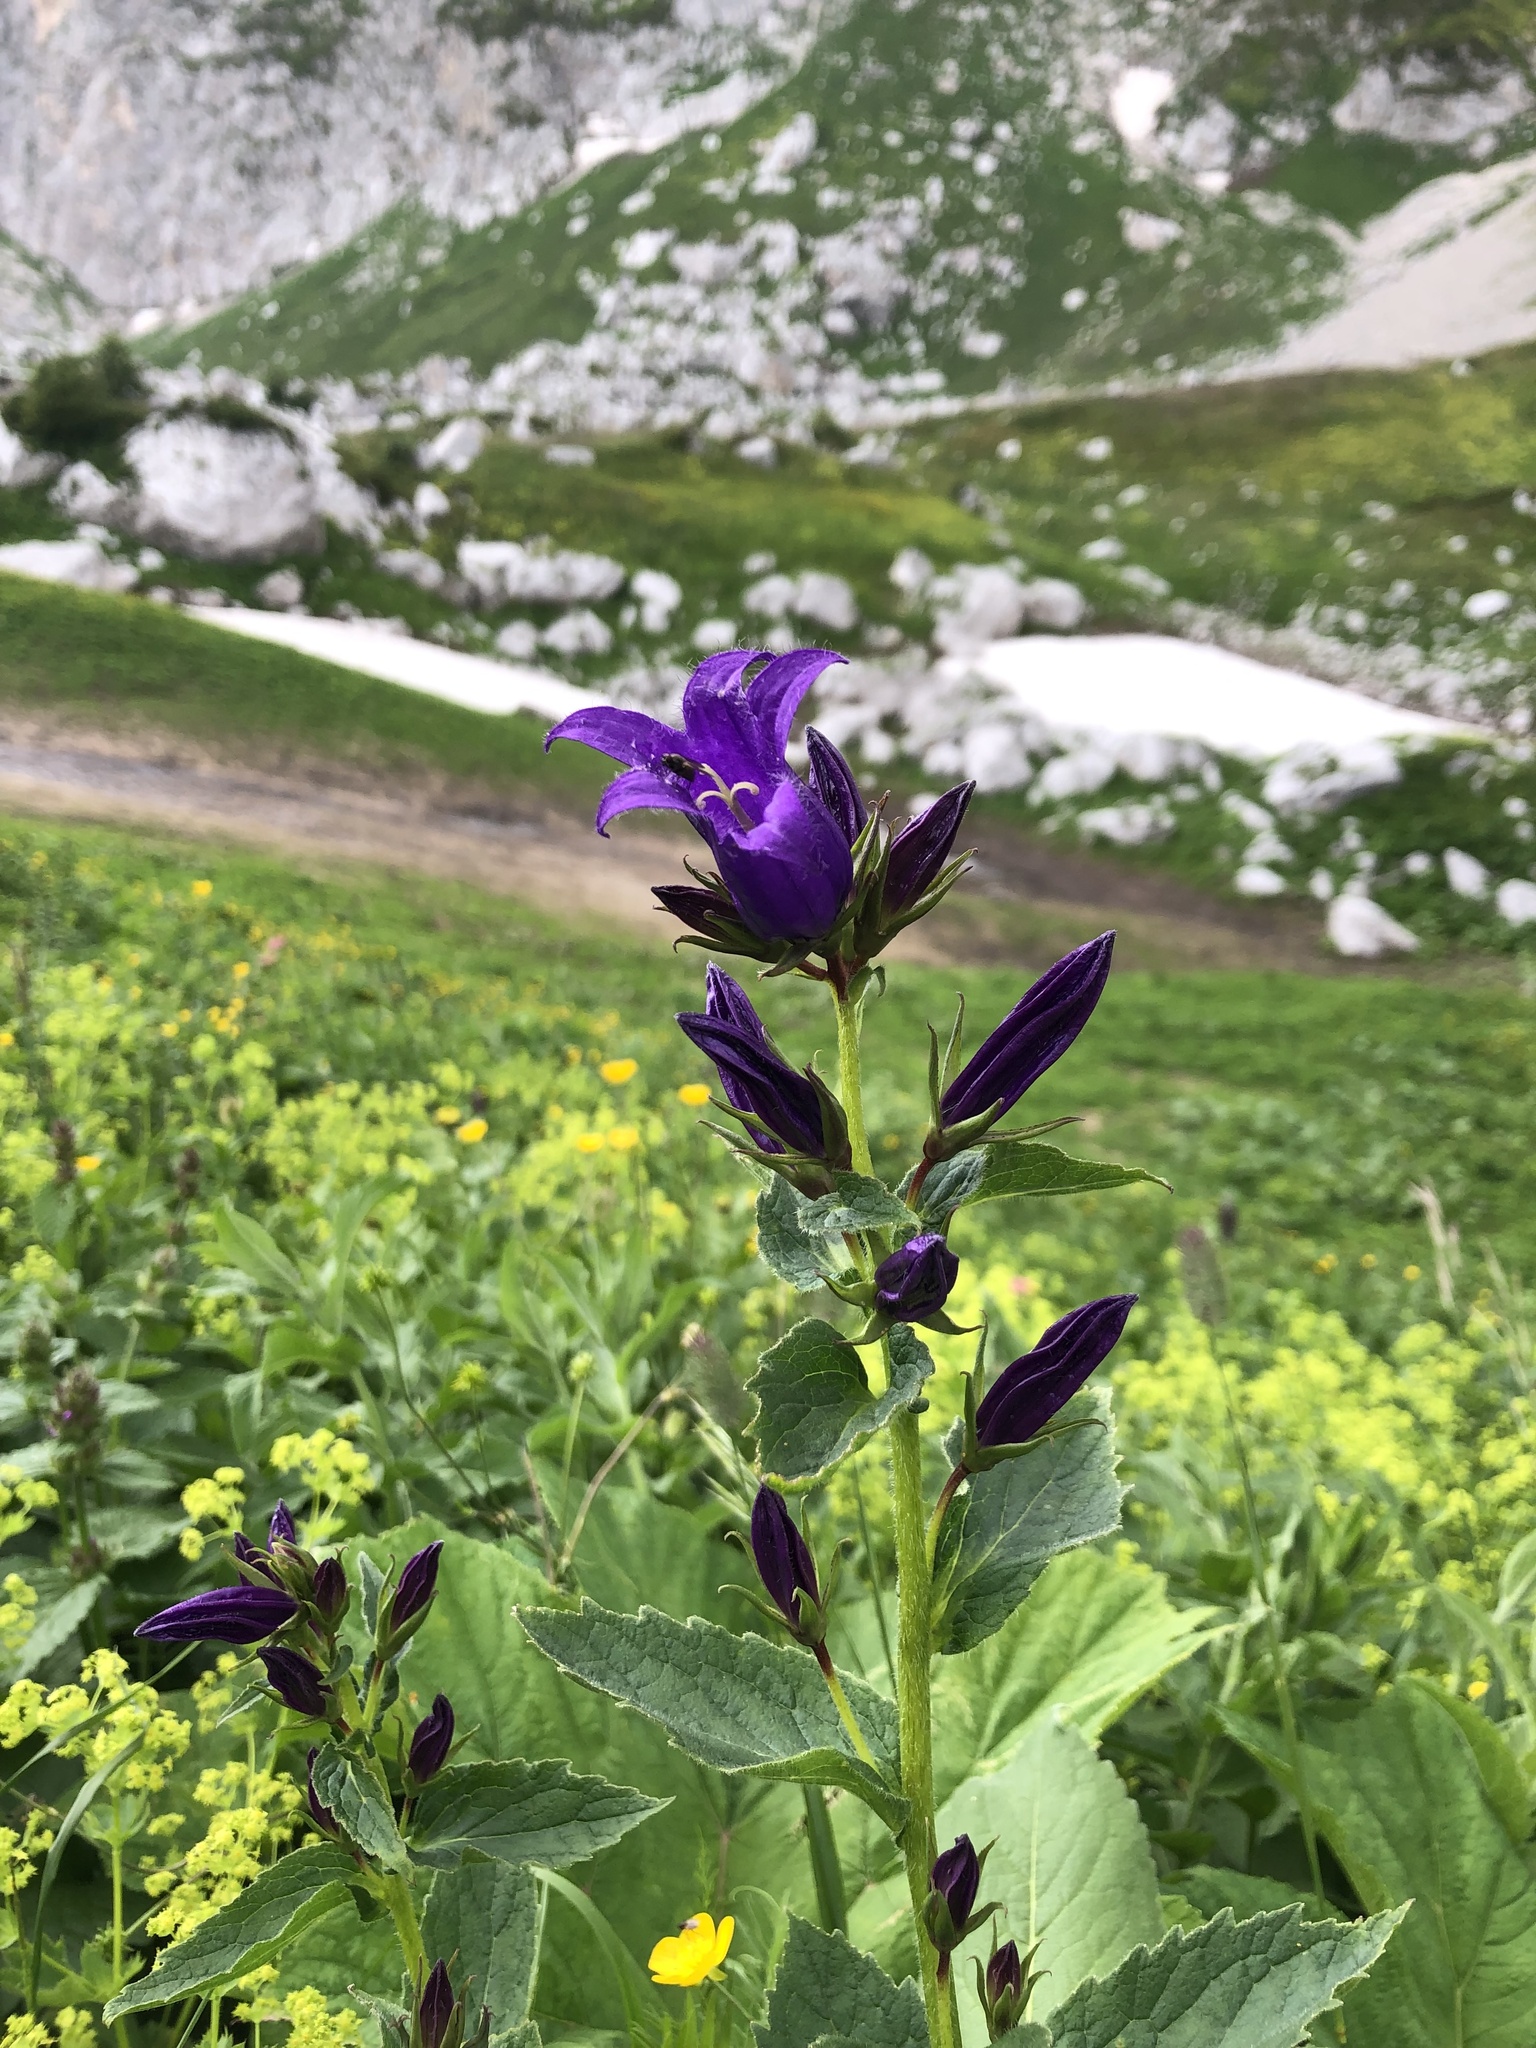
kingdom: Plantae
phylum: Tracheophyta
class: Magnoliopsida
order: Asterales
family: Campanulaceae
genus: Campanula
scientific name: Campanula latifolia
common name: Giant bellflower
